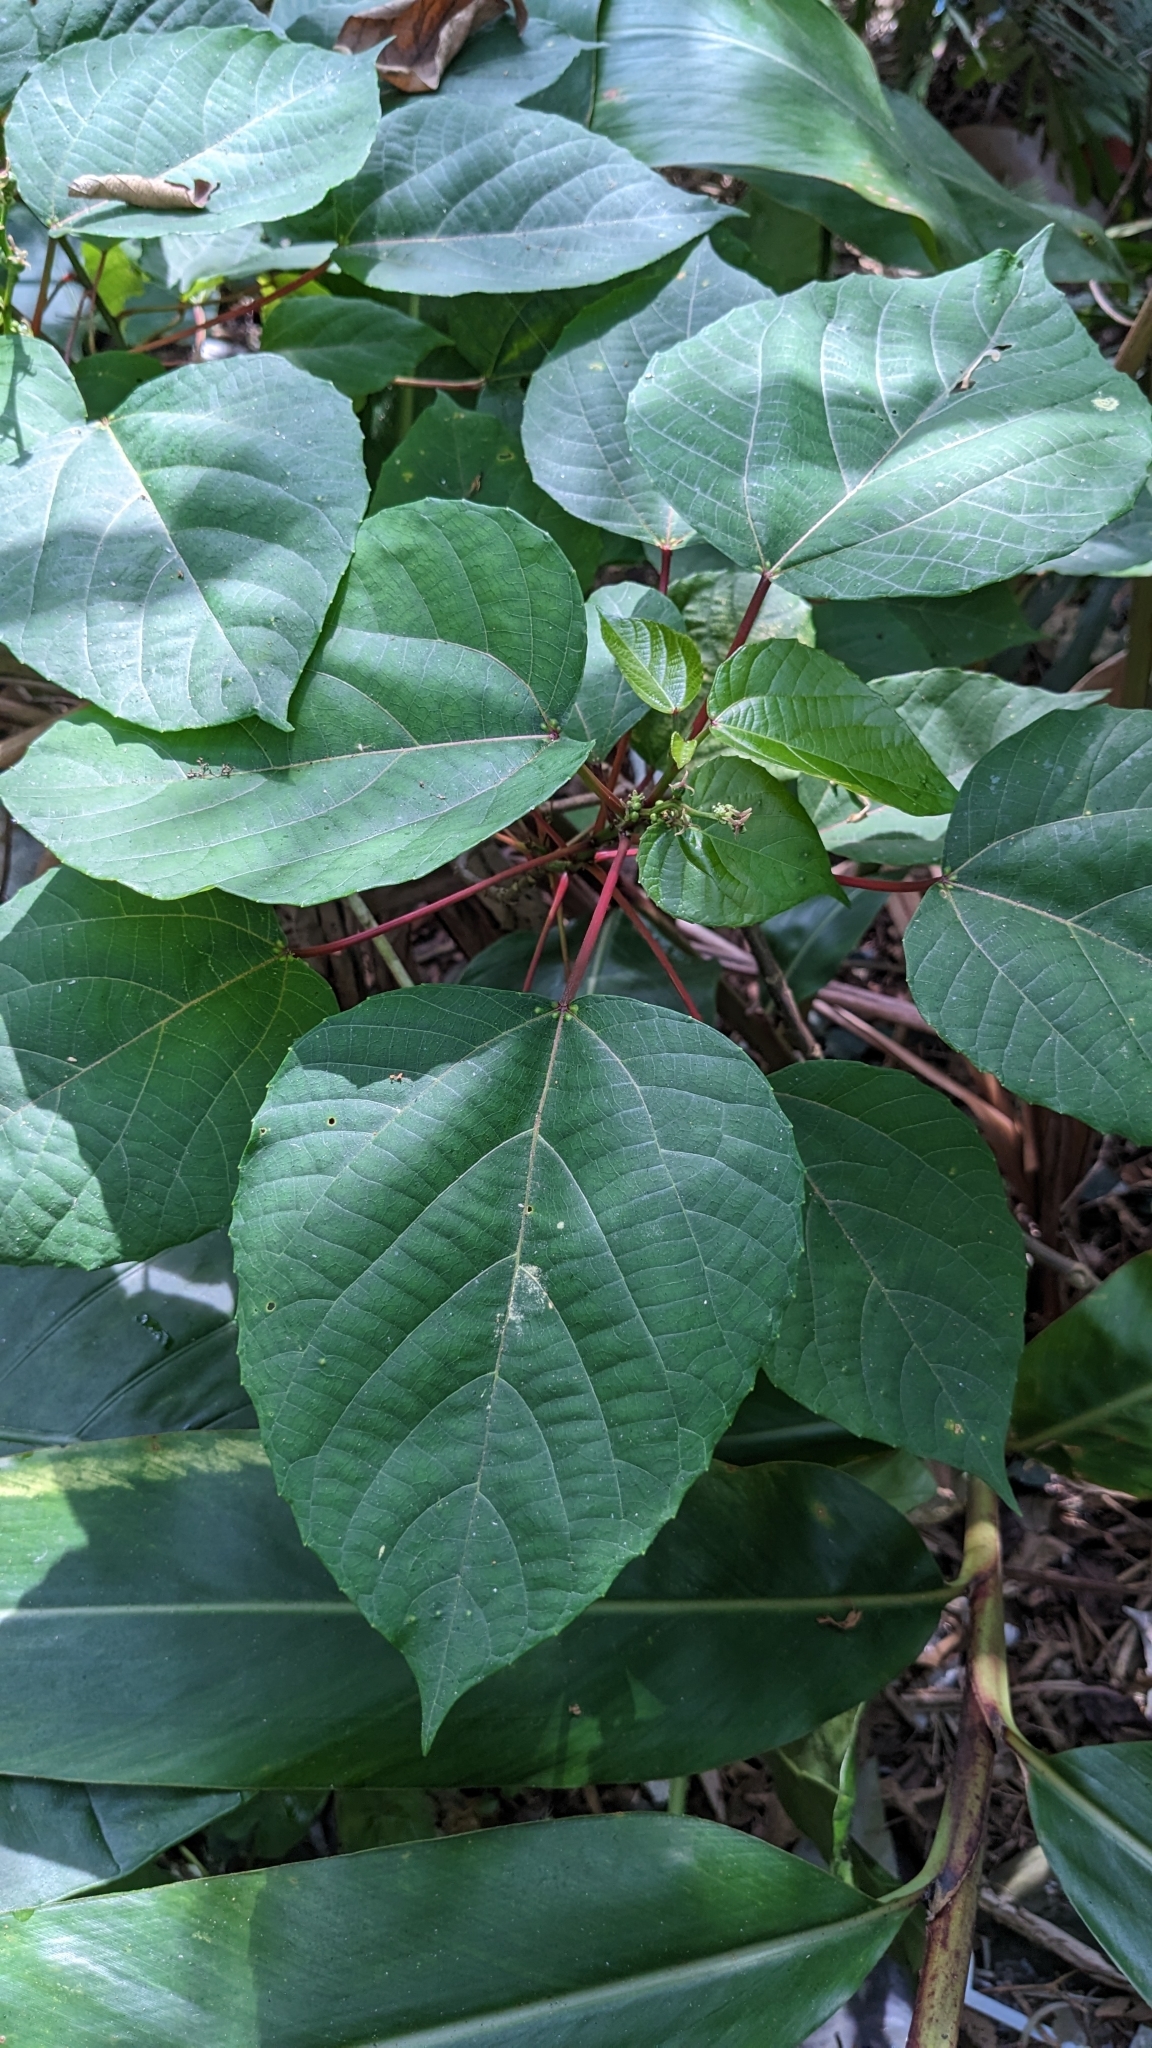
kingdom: Plantae
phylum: Tracheophyta
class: Magnoliopsida
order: Malpighiales
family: Euphorbiaceae
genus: Alchornea
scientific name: Alchornea trewioides
